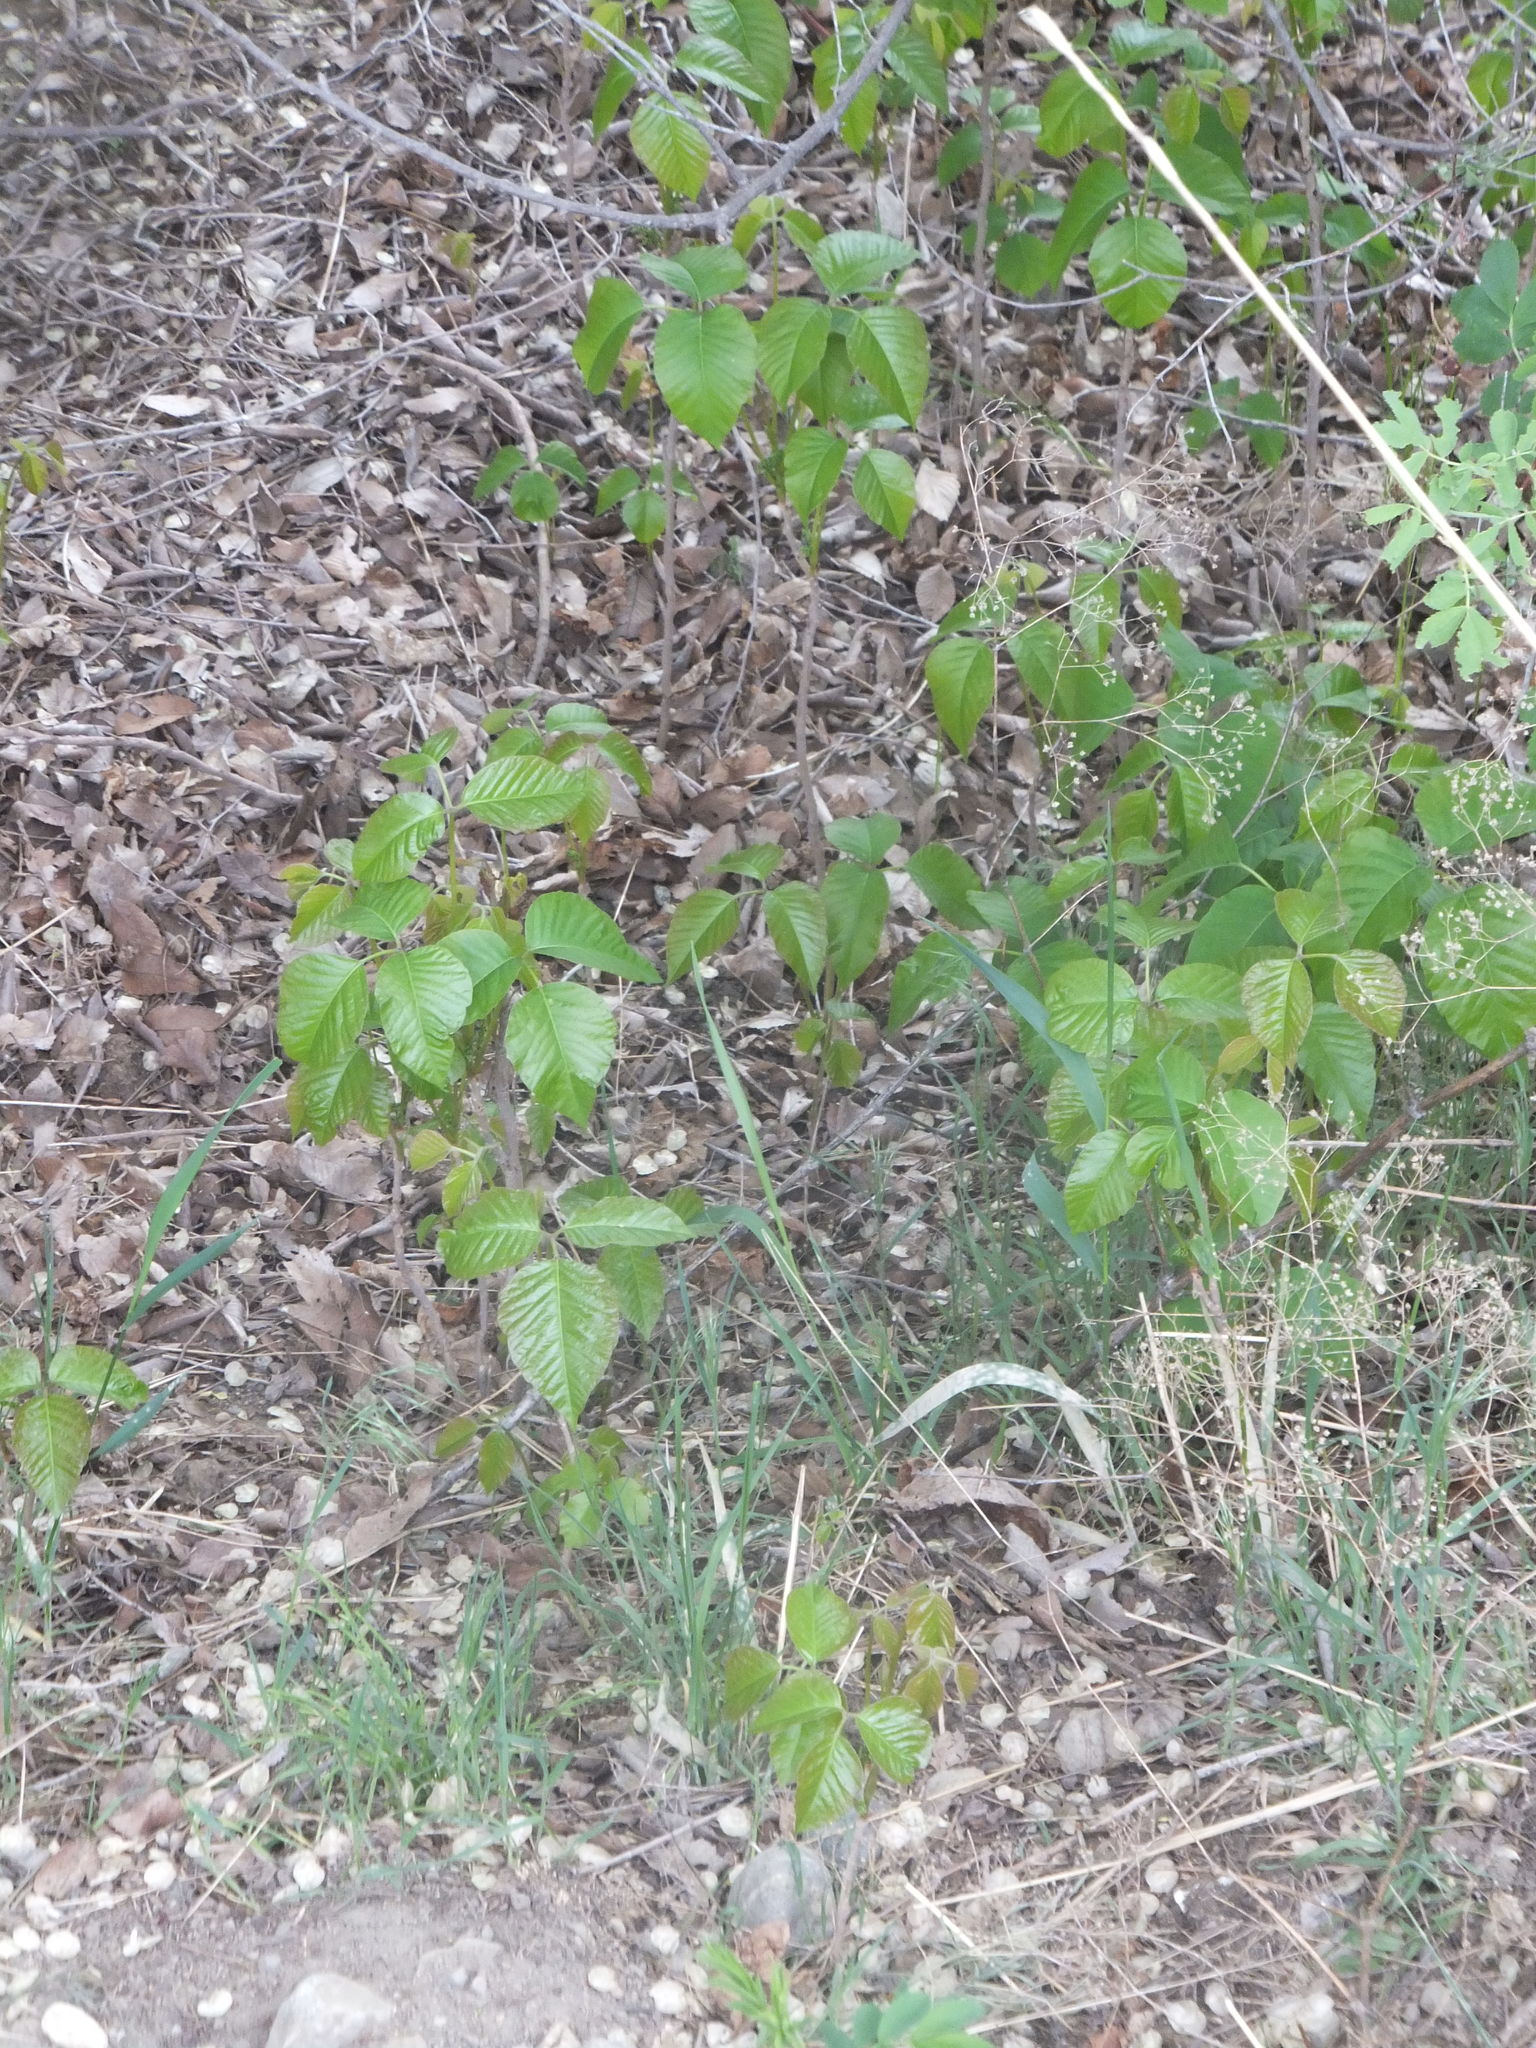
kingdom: Plantae
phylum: Tracheophyta
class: Magnoliopsida
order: Sapindales
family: Anacardiaceae
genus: Toxicodendron
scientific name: Toxicodendron rydbergii
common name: Rydberg's poison-ivy
